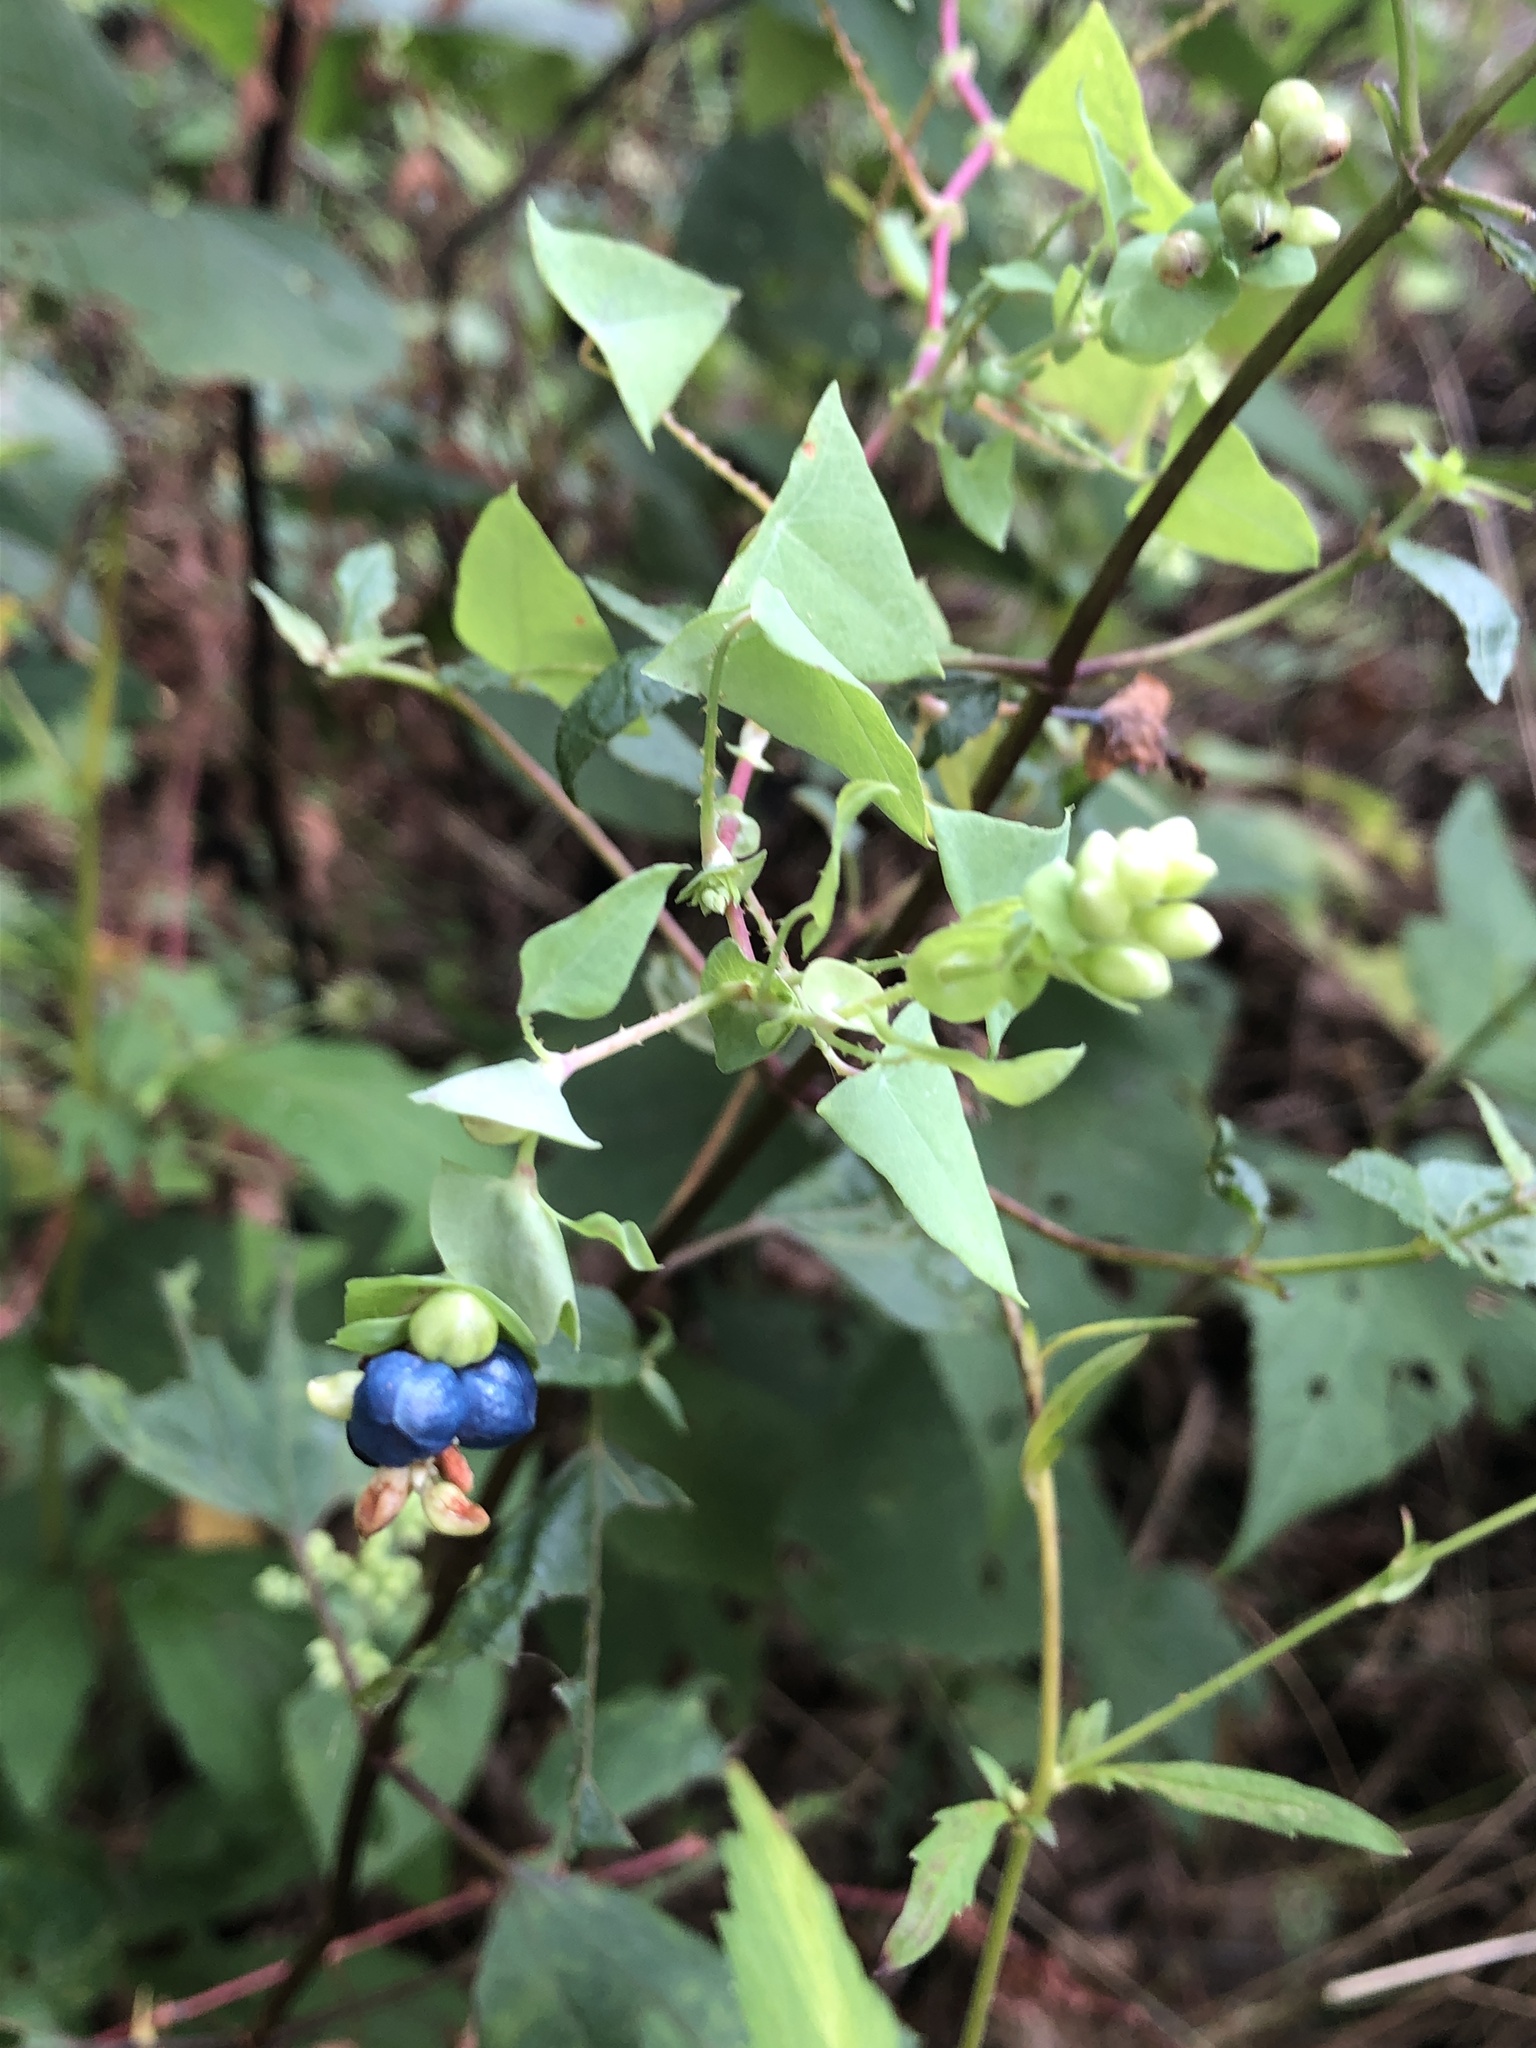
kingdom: Plantae
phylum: Tracheophyta
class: Magnoliopsida
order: Caryophyllales
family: Polygonaceae
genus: Persicaria
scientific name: Persicaria perfoliata
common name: Asiatic tearthumb
